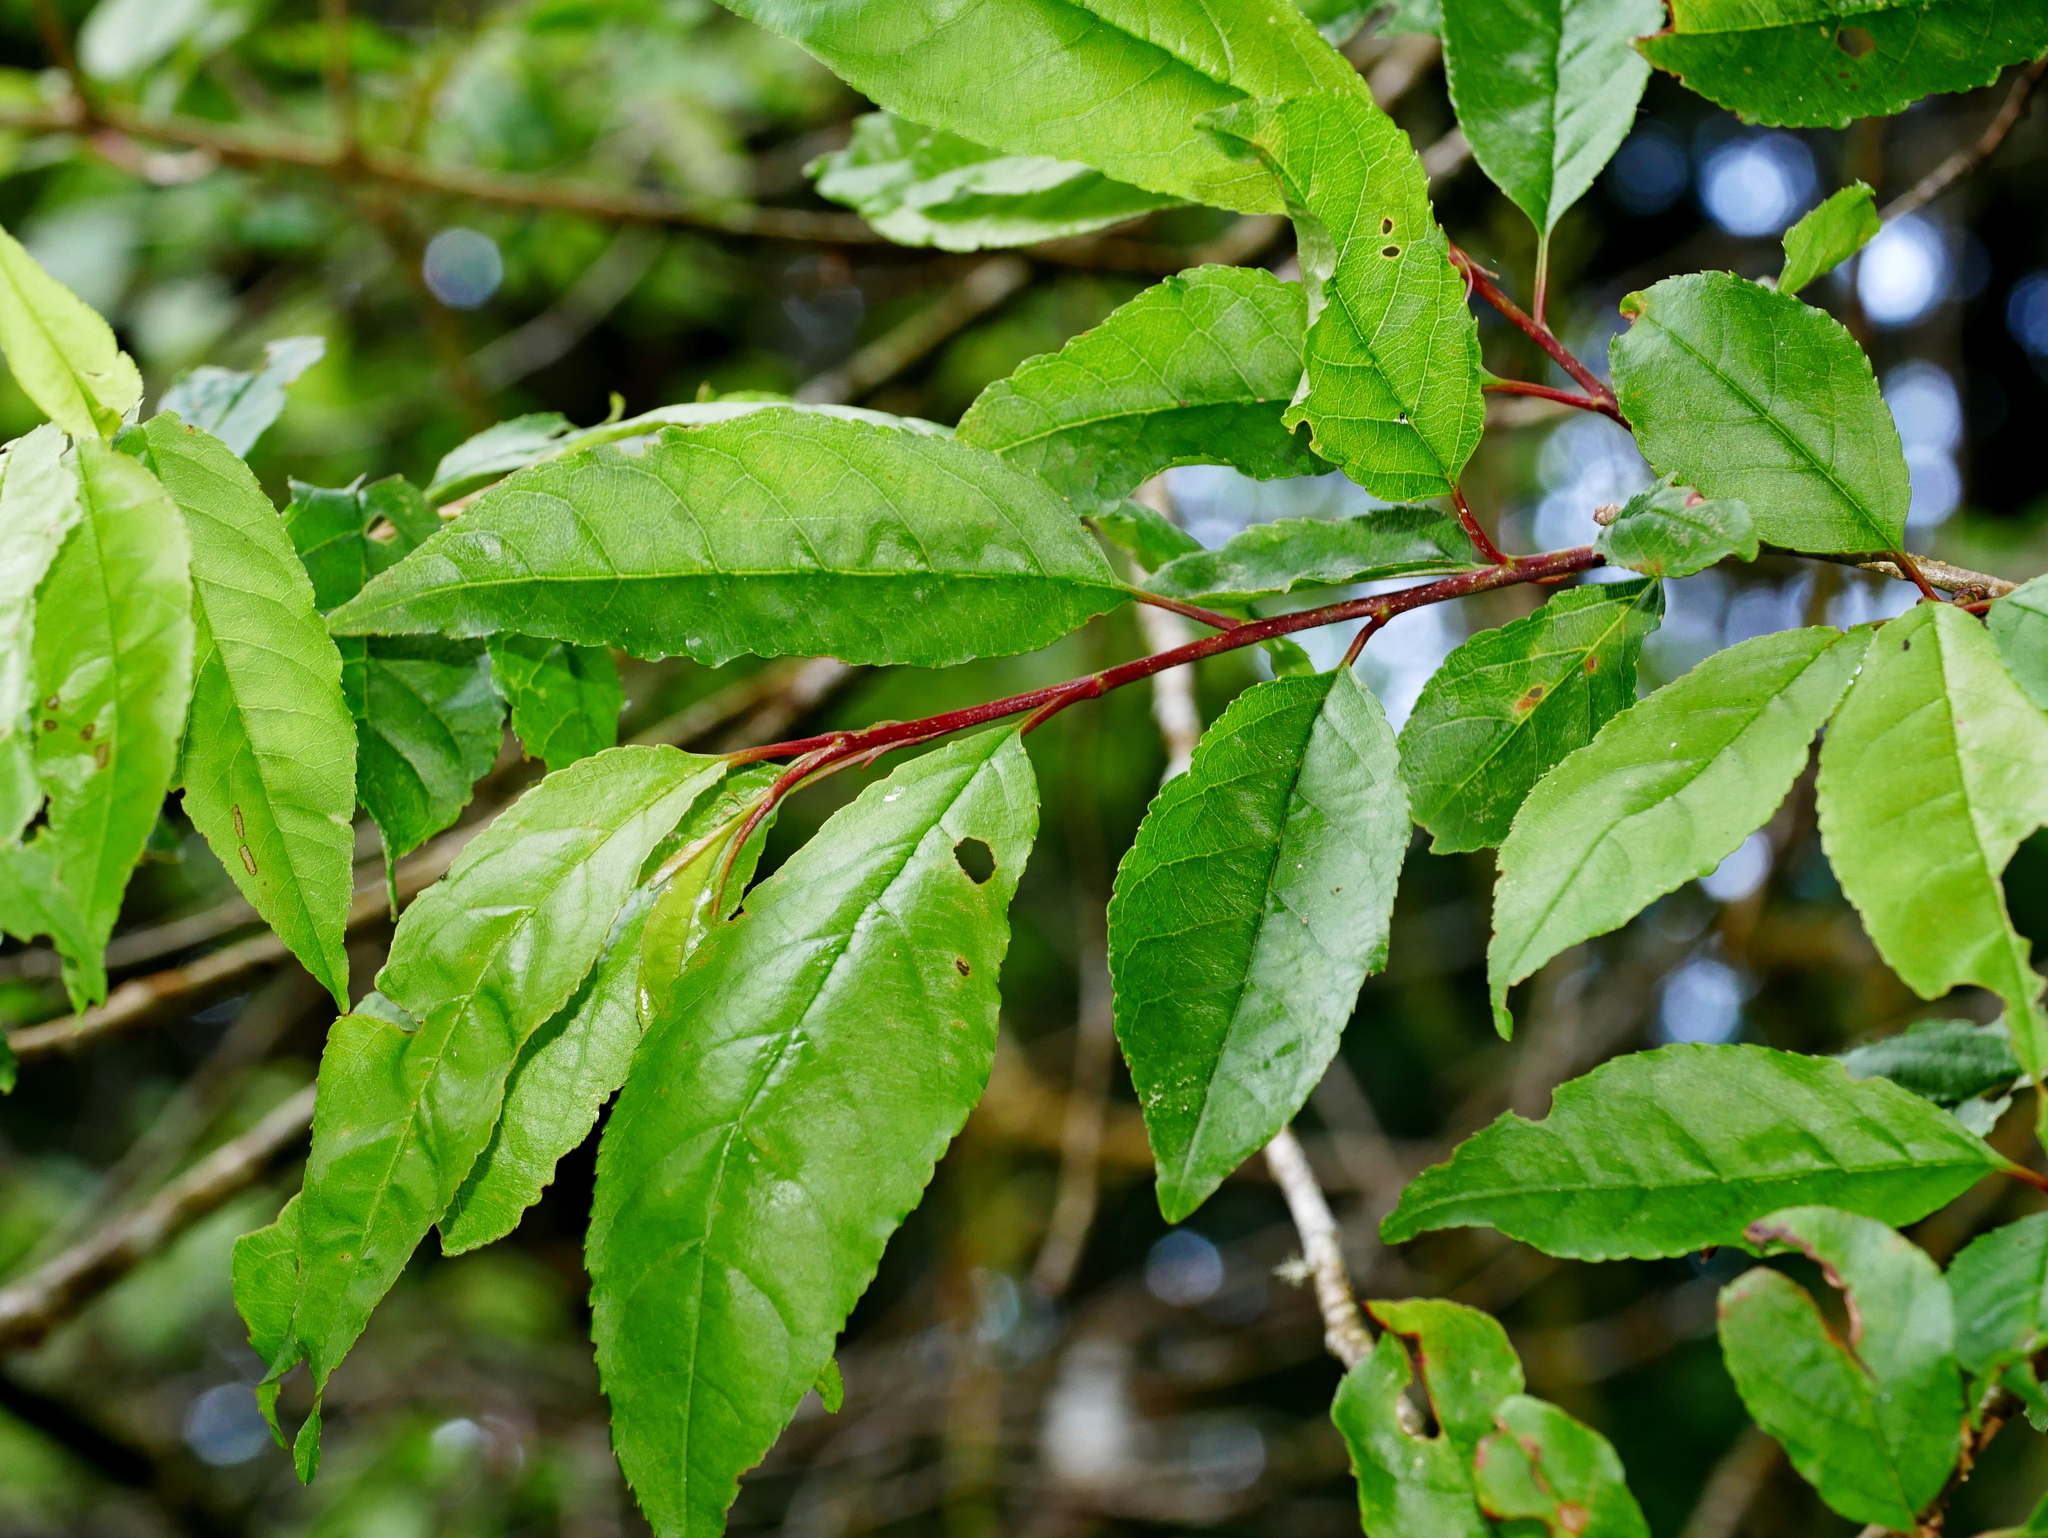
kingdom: Plantae
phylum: Tracheophyta
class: Magnoliopsida
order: Rosales
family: Rosaceae
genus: Prunus
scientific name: Prunus buergeriana
